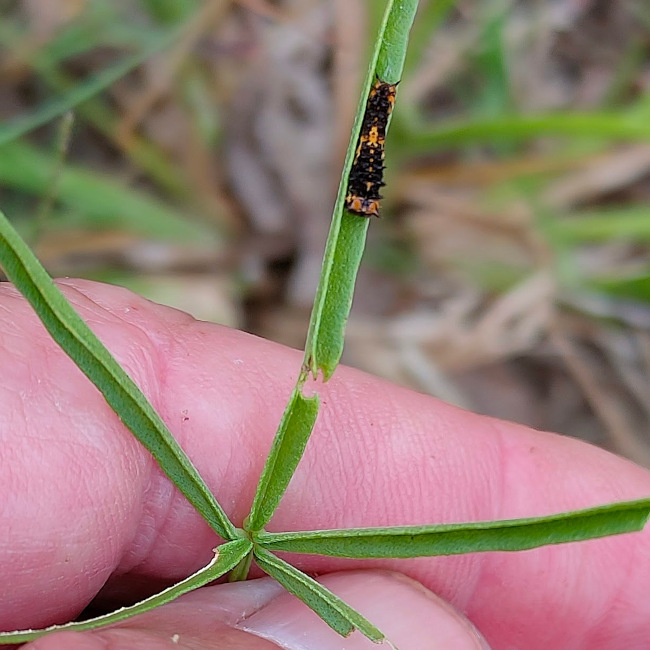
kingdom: Animalia
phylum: Arthropoda
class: Insecta
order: Lepidoptera
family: Papilionidae
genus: Papilio
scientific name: Papilio demoleus
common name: Lime butterfly
